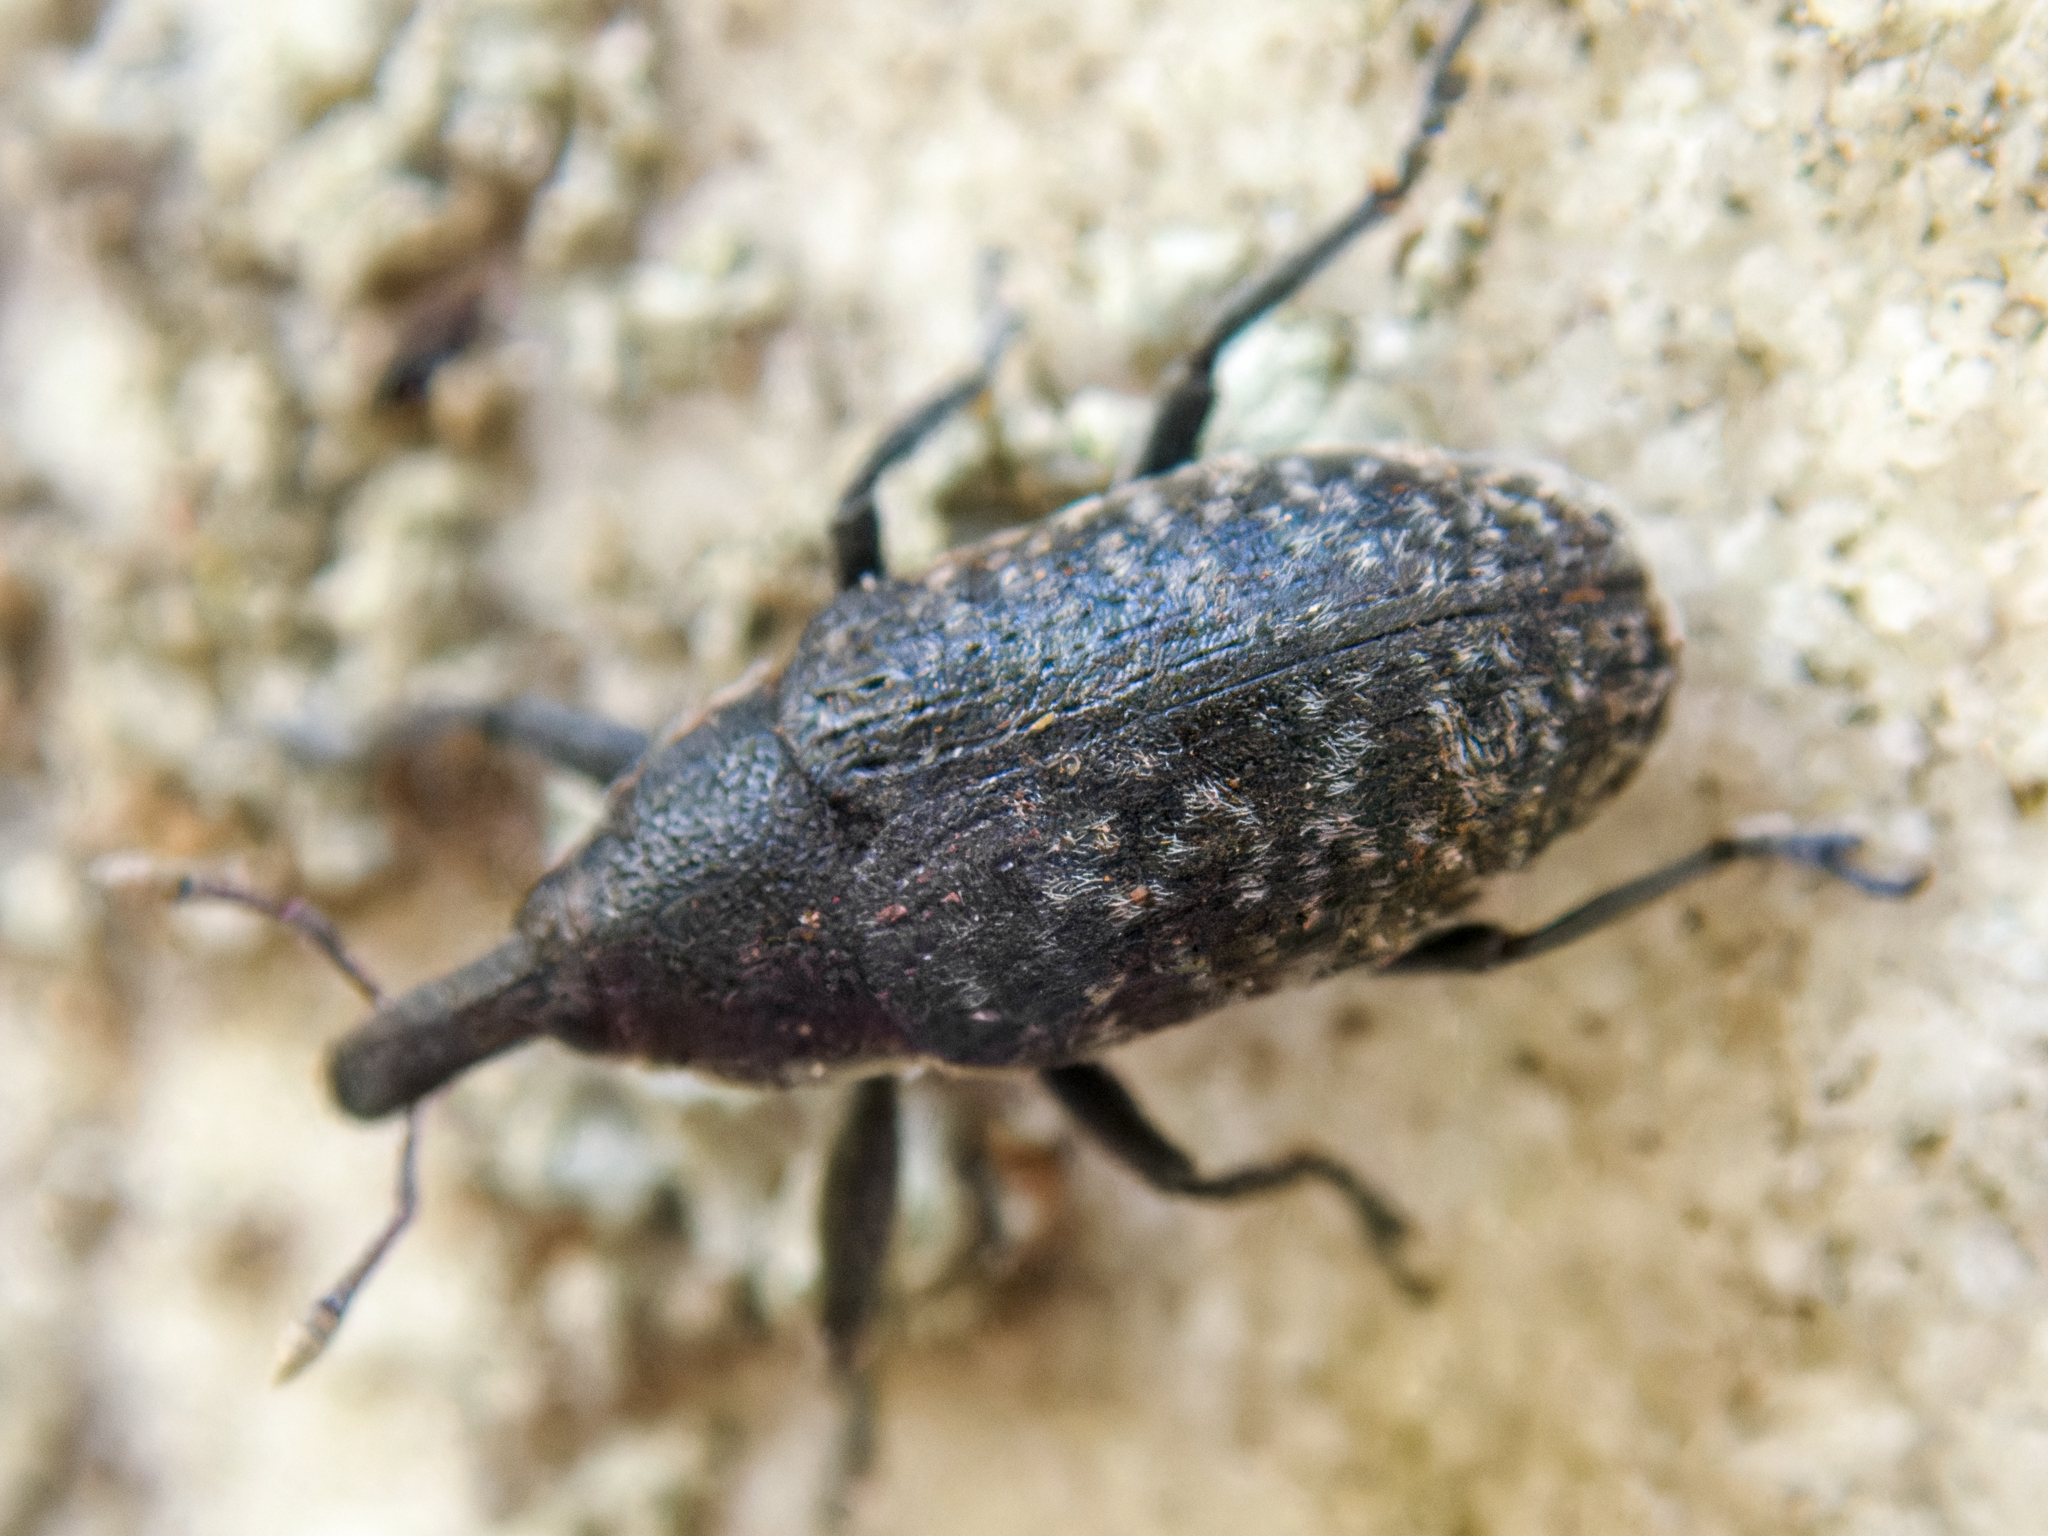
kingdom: Animalia
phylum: Arthropoda
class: Insecta
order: Coleoptera
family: Curculionidae
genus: Larinus
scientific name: Larinus carlinae
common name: Weevil
